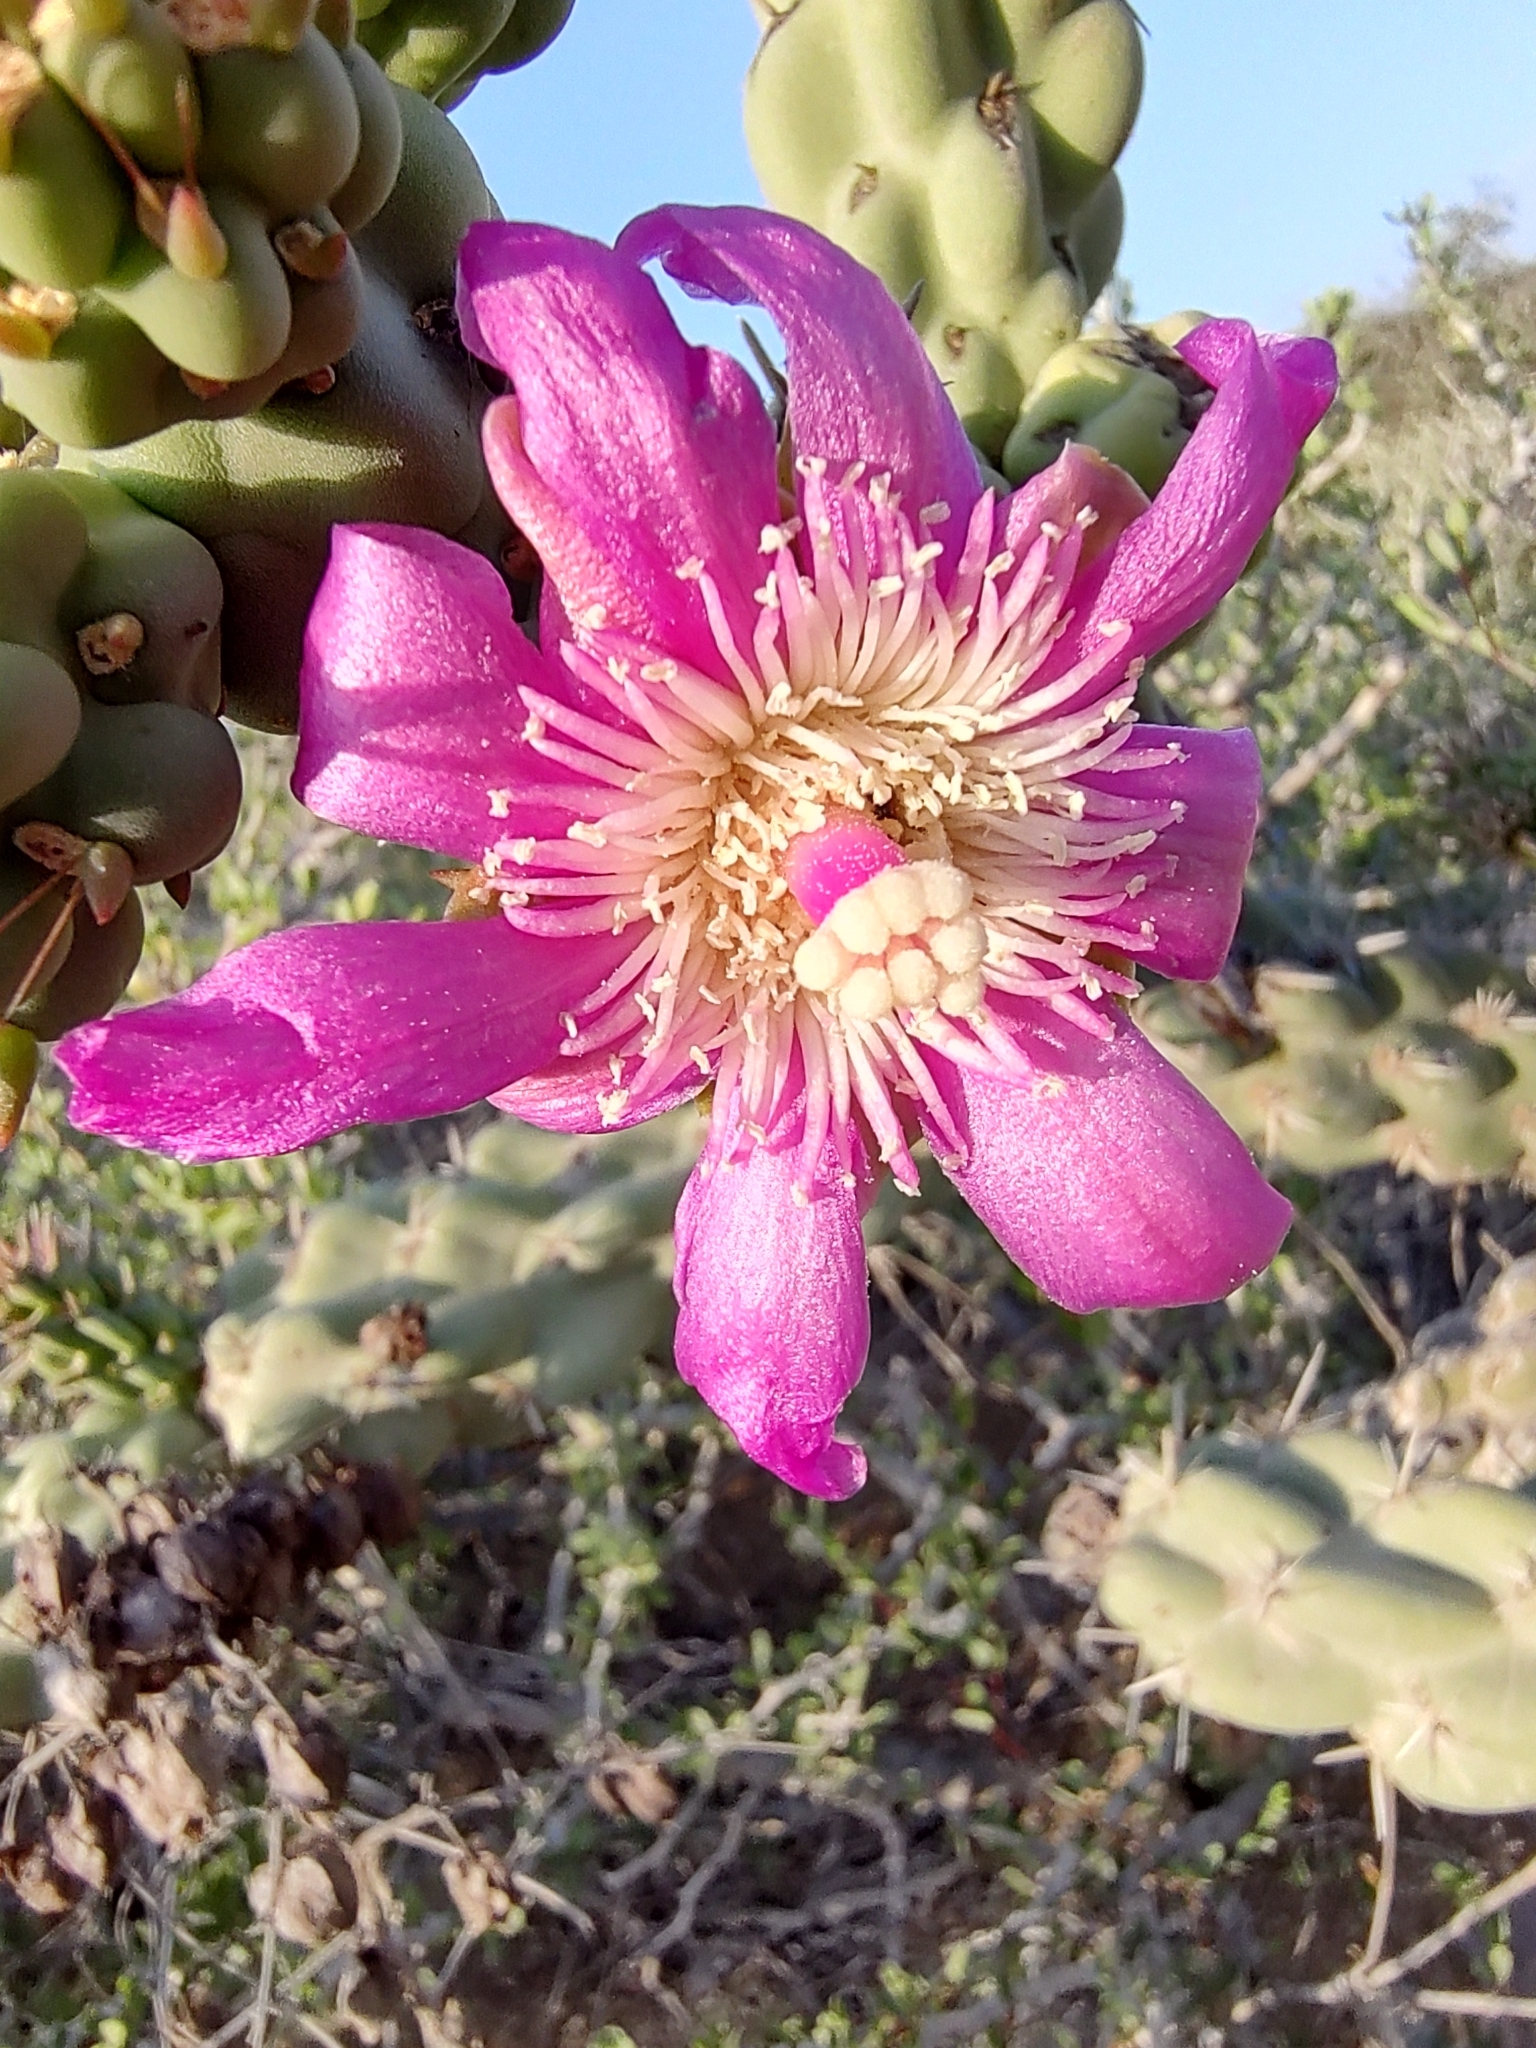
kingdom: Plantae
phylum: Tracheophyta
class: Magnoliopsida
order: Caryophyllales
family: Cactaceae
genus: Cylindropuntia
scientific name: Cylindropuntia cholla
